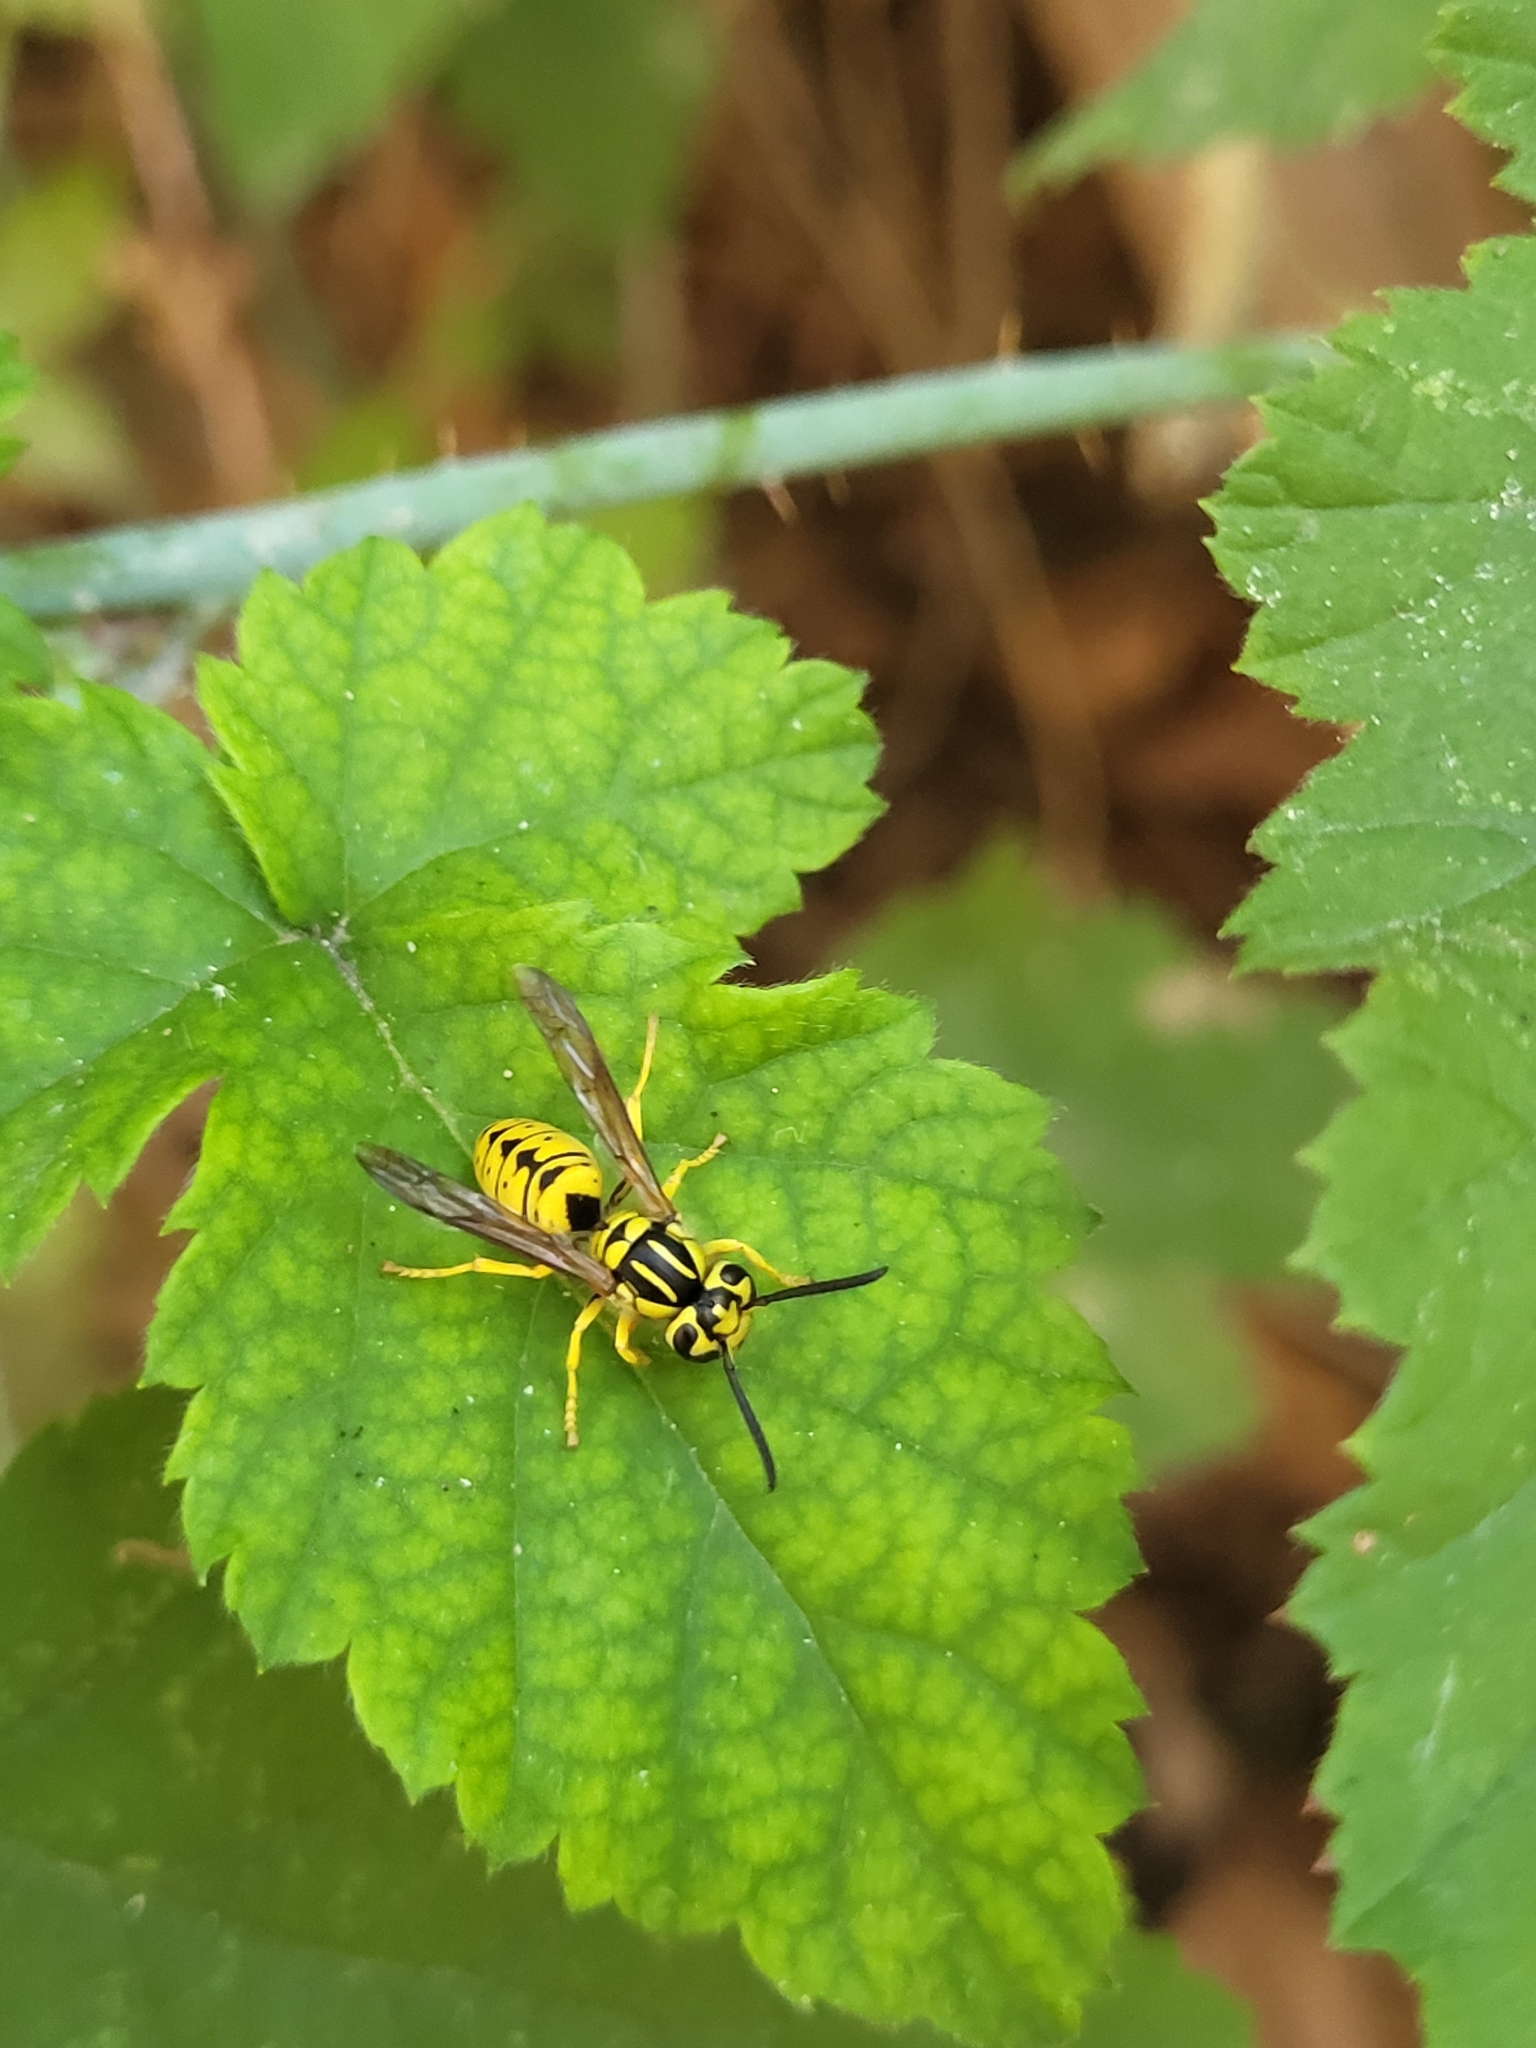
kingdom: Animalia
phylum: Arthropoda
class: Insecta
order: Hymenoptera
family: Vespidae
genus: Vespula
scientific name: Vespula sulphurea
